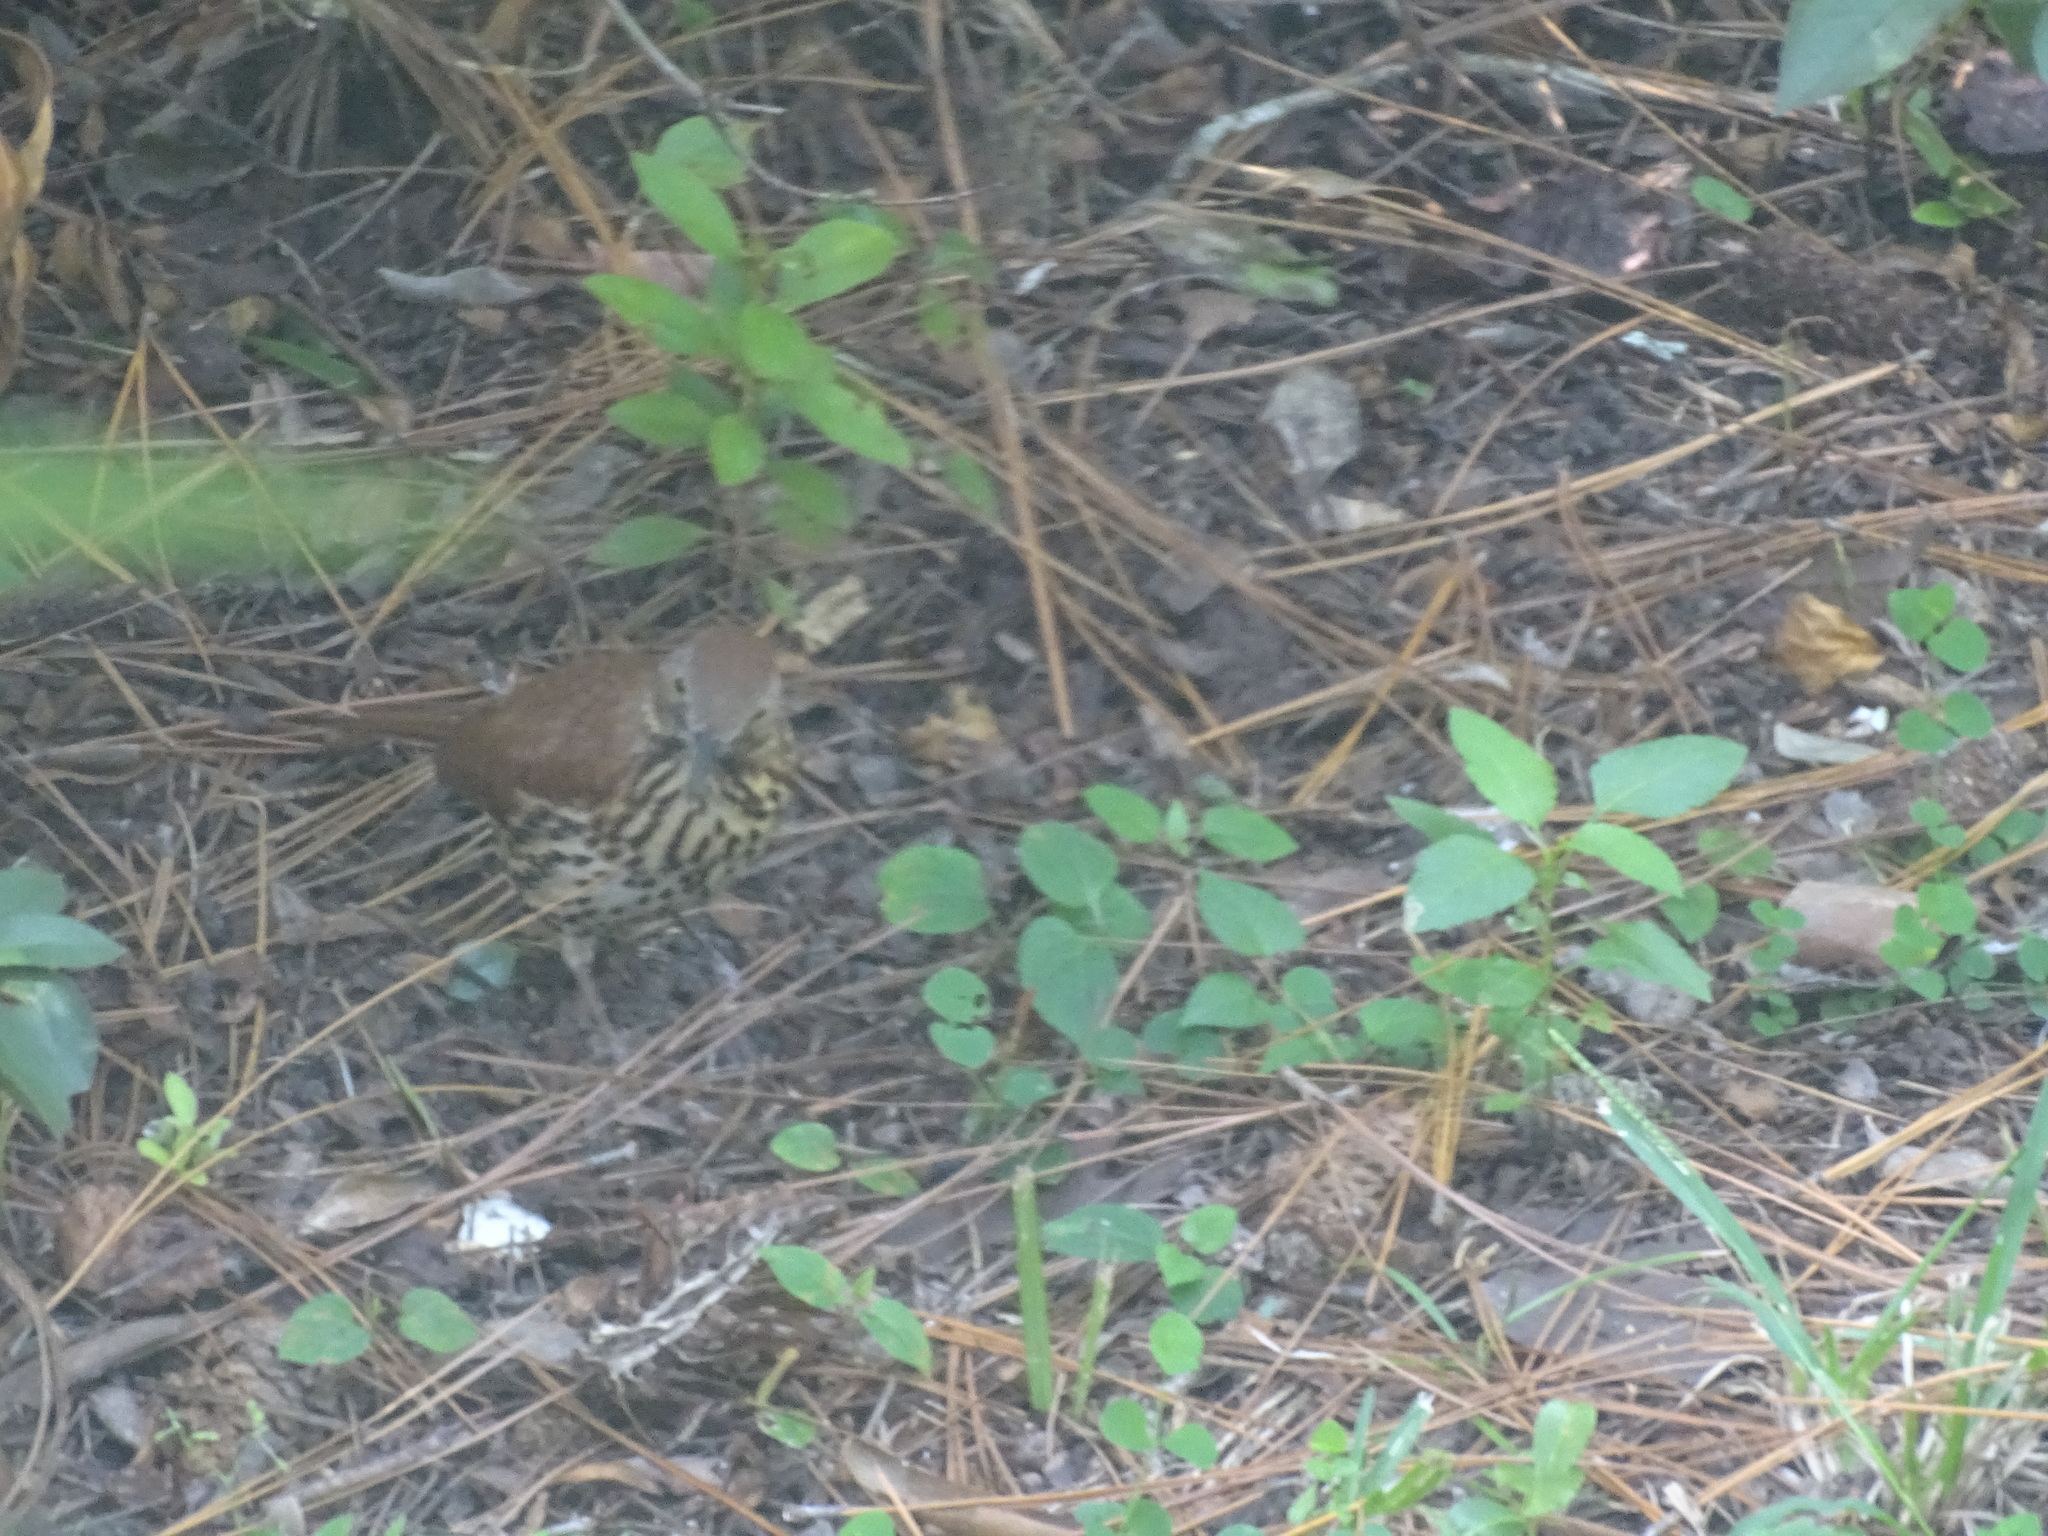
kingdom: Animalia
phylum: Chordata
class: Aves
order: Passeriformes
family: Mimidae
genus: Toxostoma
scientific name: Toxostoma rufum
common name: Brown thrasher
